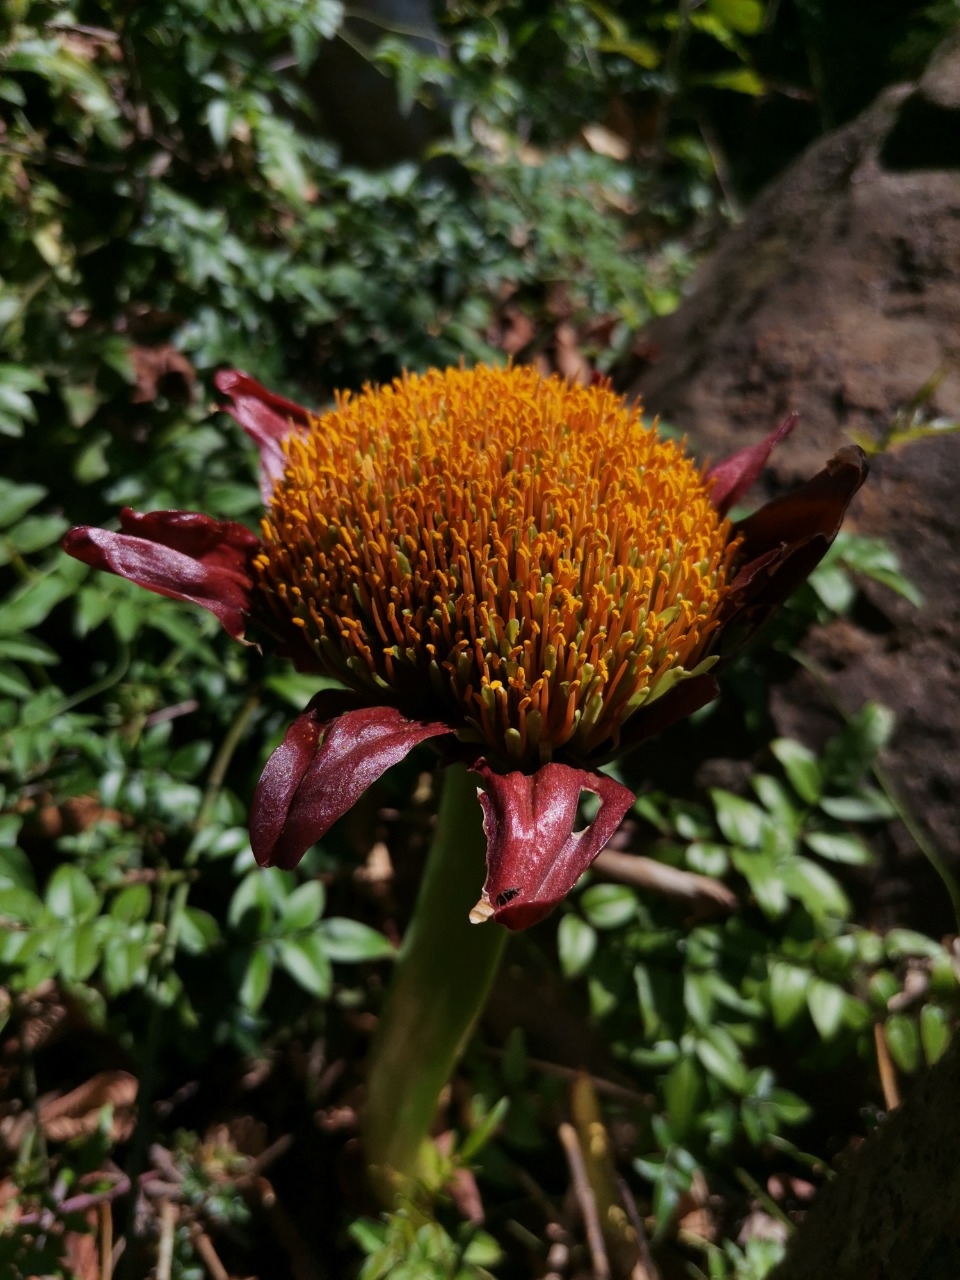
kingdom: Plantae
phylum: Tracheophyta
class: Liliopsida
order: Asparagales
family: Amaryllidaceae
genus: Scadoxus
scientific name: Scadoxus puniceus
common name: Royal-paintbrush
